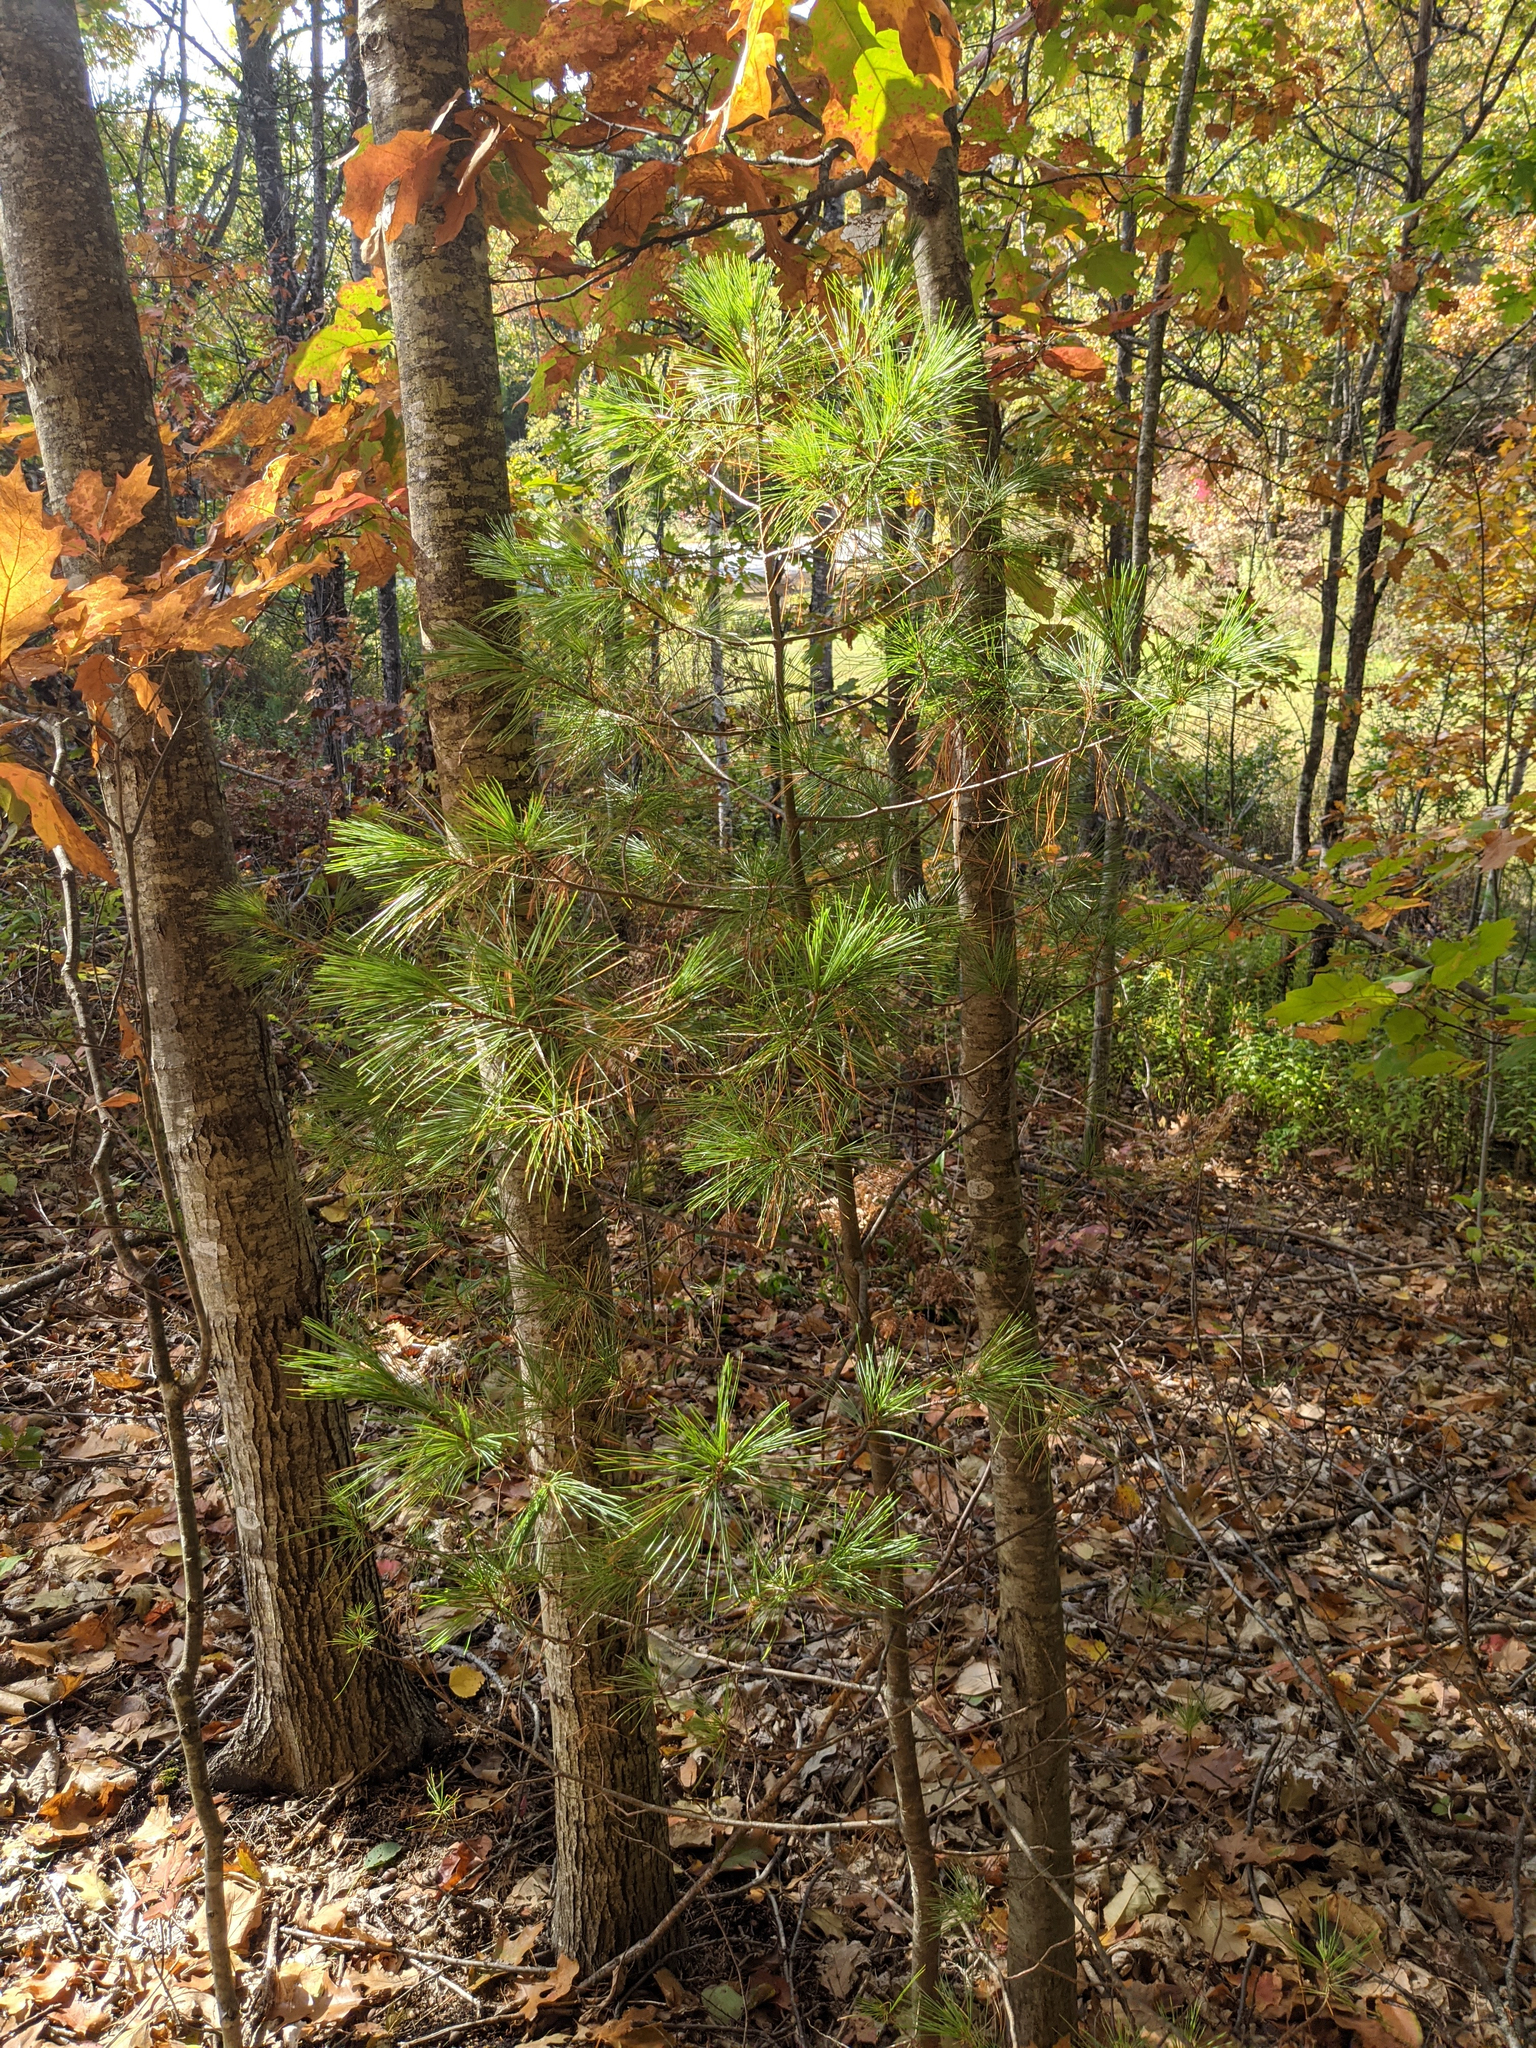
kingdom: Plantae
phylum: Tracheophyta
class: Pinopsida
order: Pinales
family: Pinaceae
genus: Pinus
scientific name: Pinus strobus
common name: Weymouth pine
